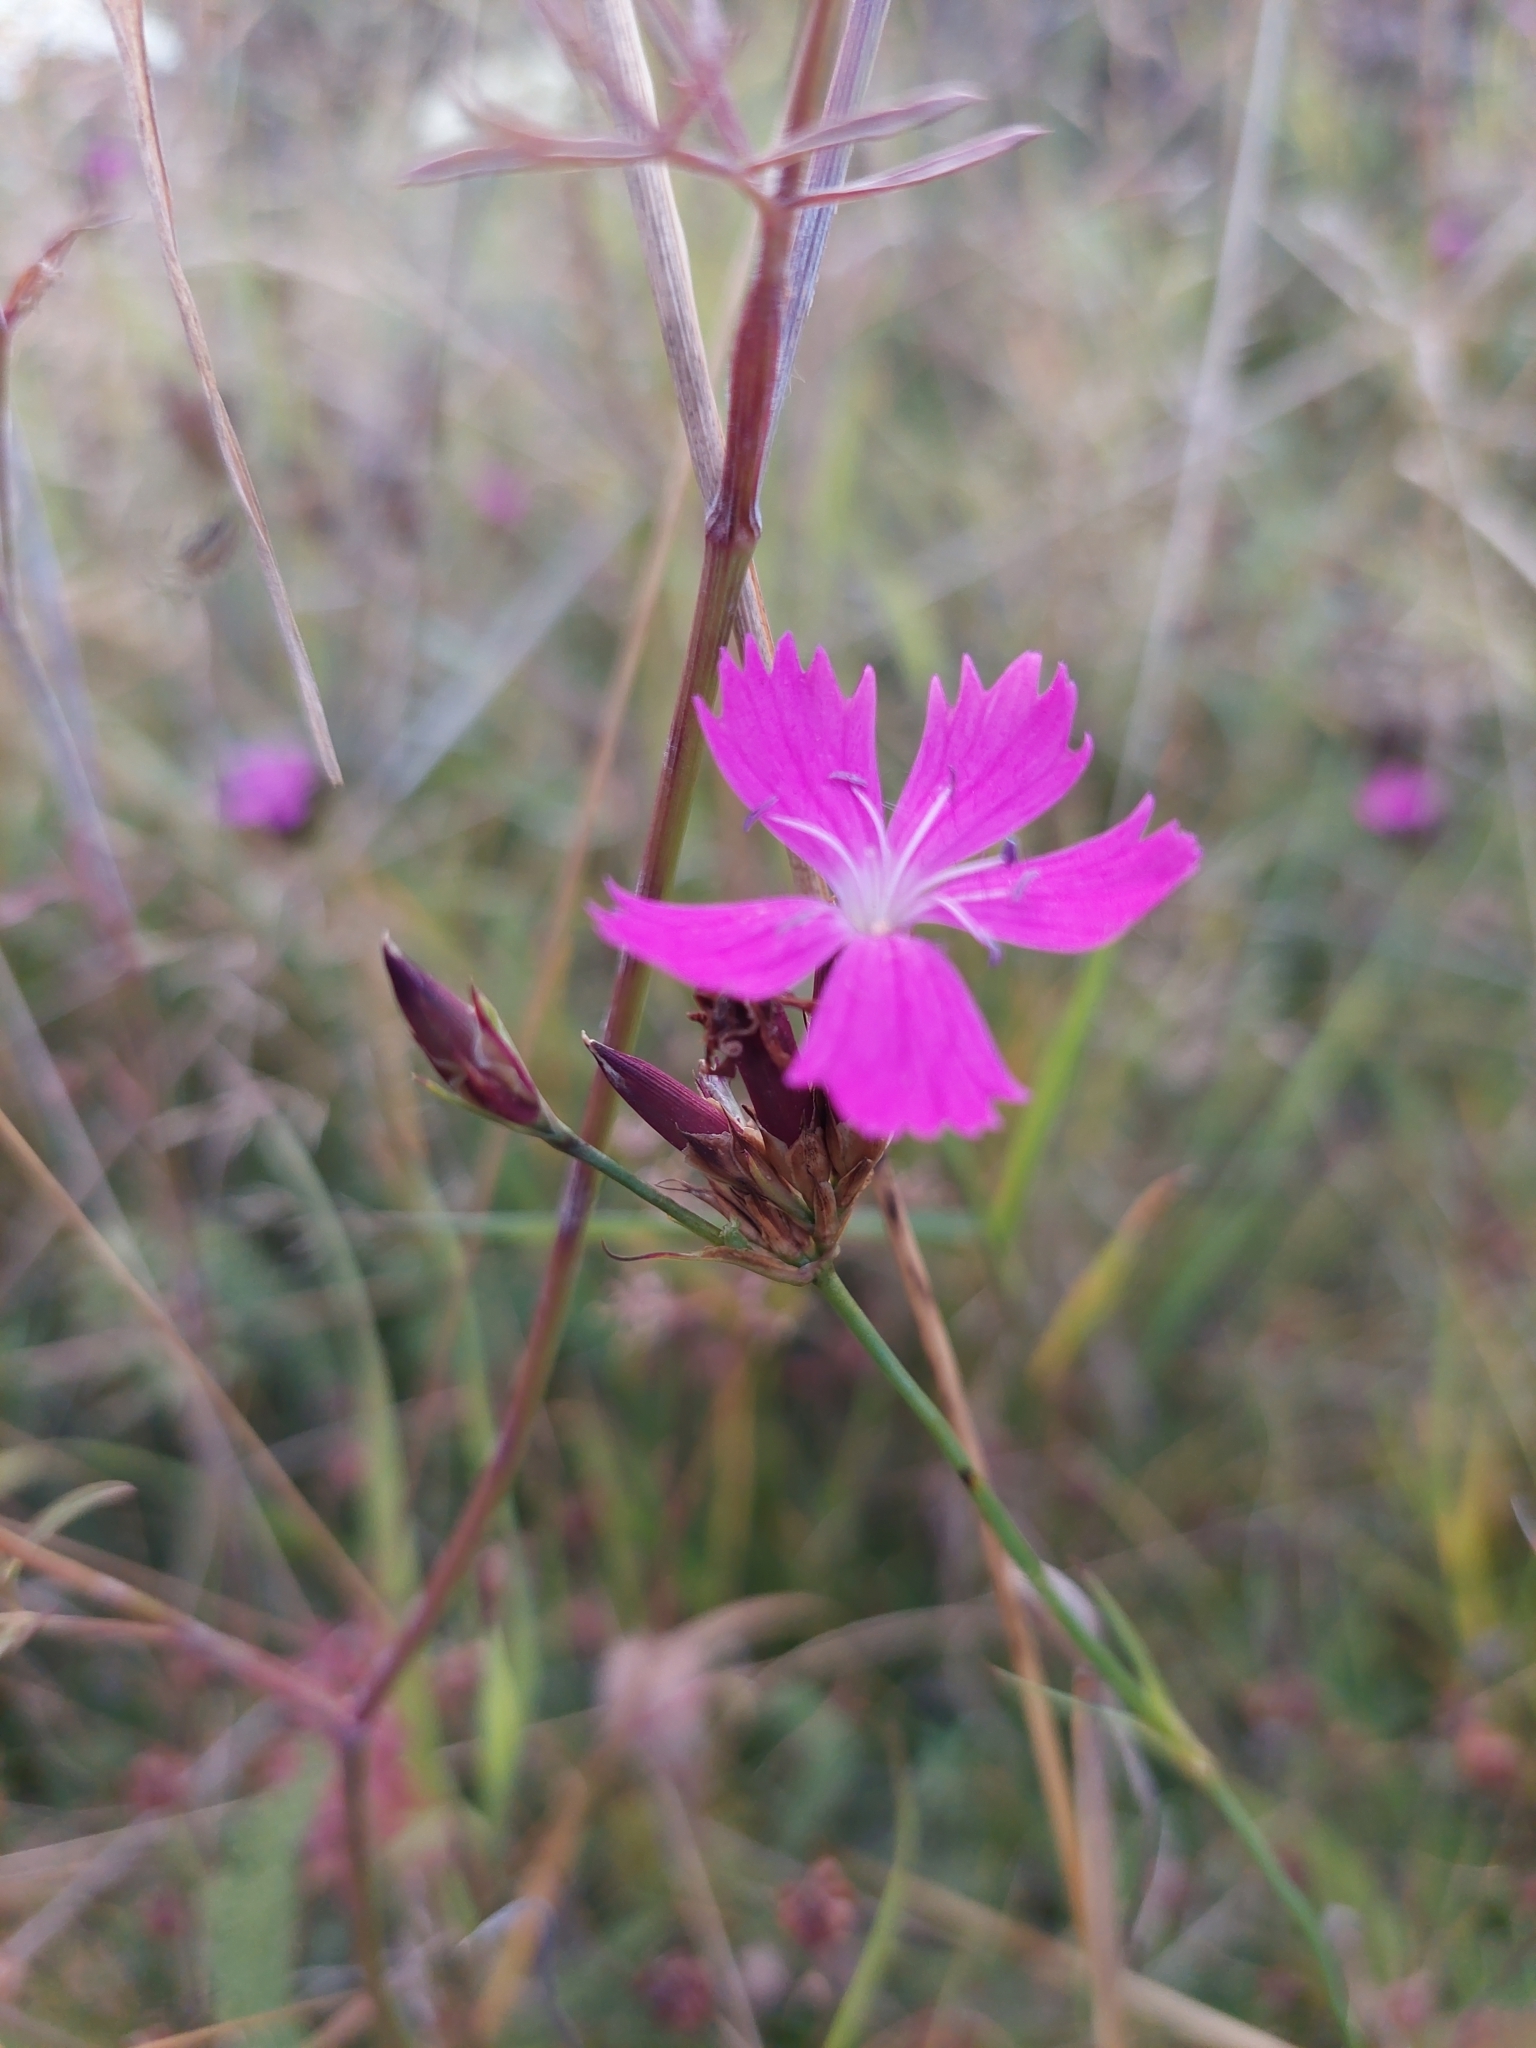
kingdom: Plantae
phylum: Tracheophyta
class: Magnoliopsida
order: Caryophyllales
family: Caryophyllaceae
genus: Dianthus
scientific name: Dianthus carthusianorum
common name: Carthusian pink
